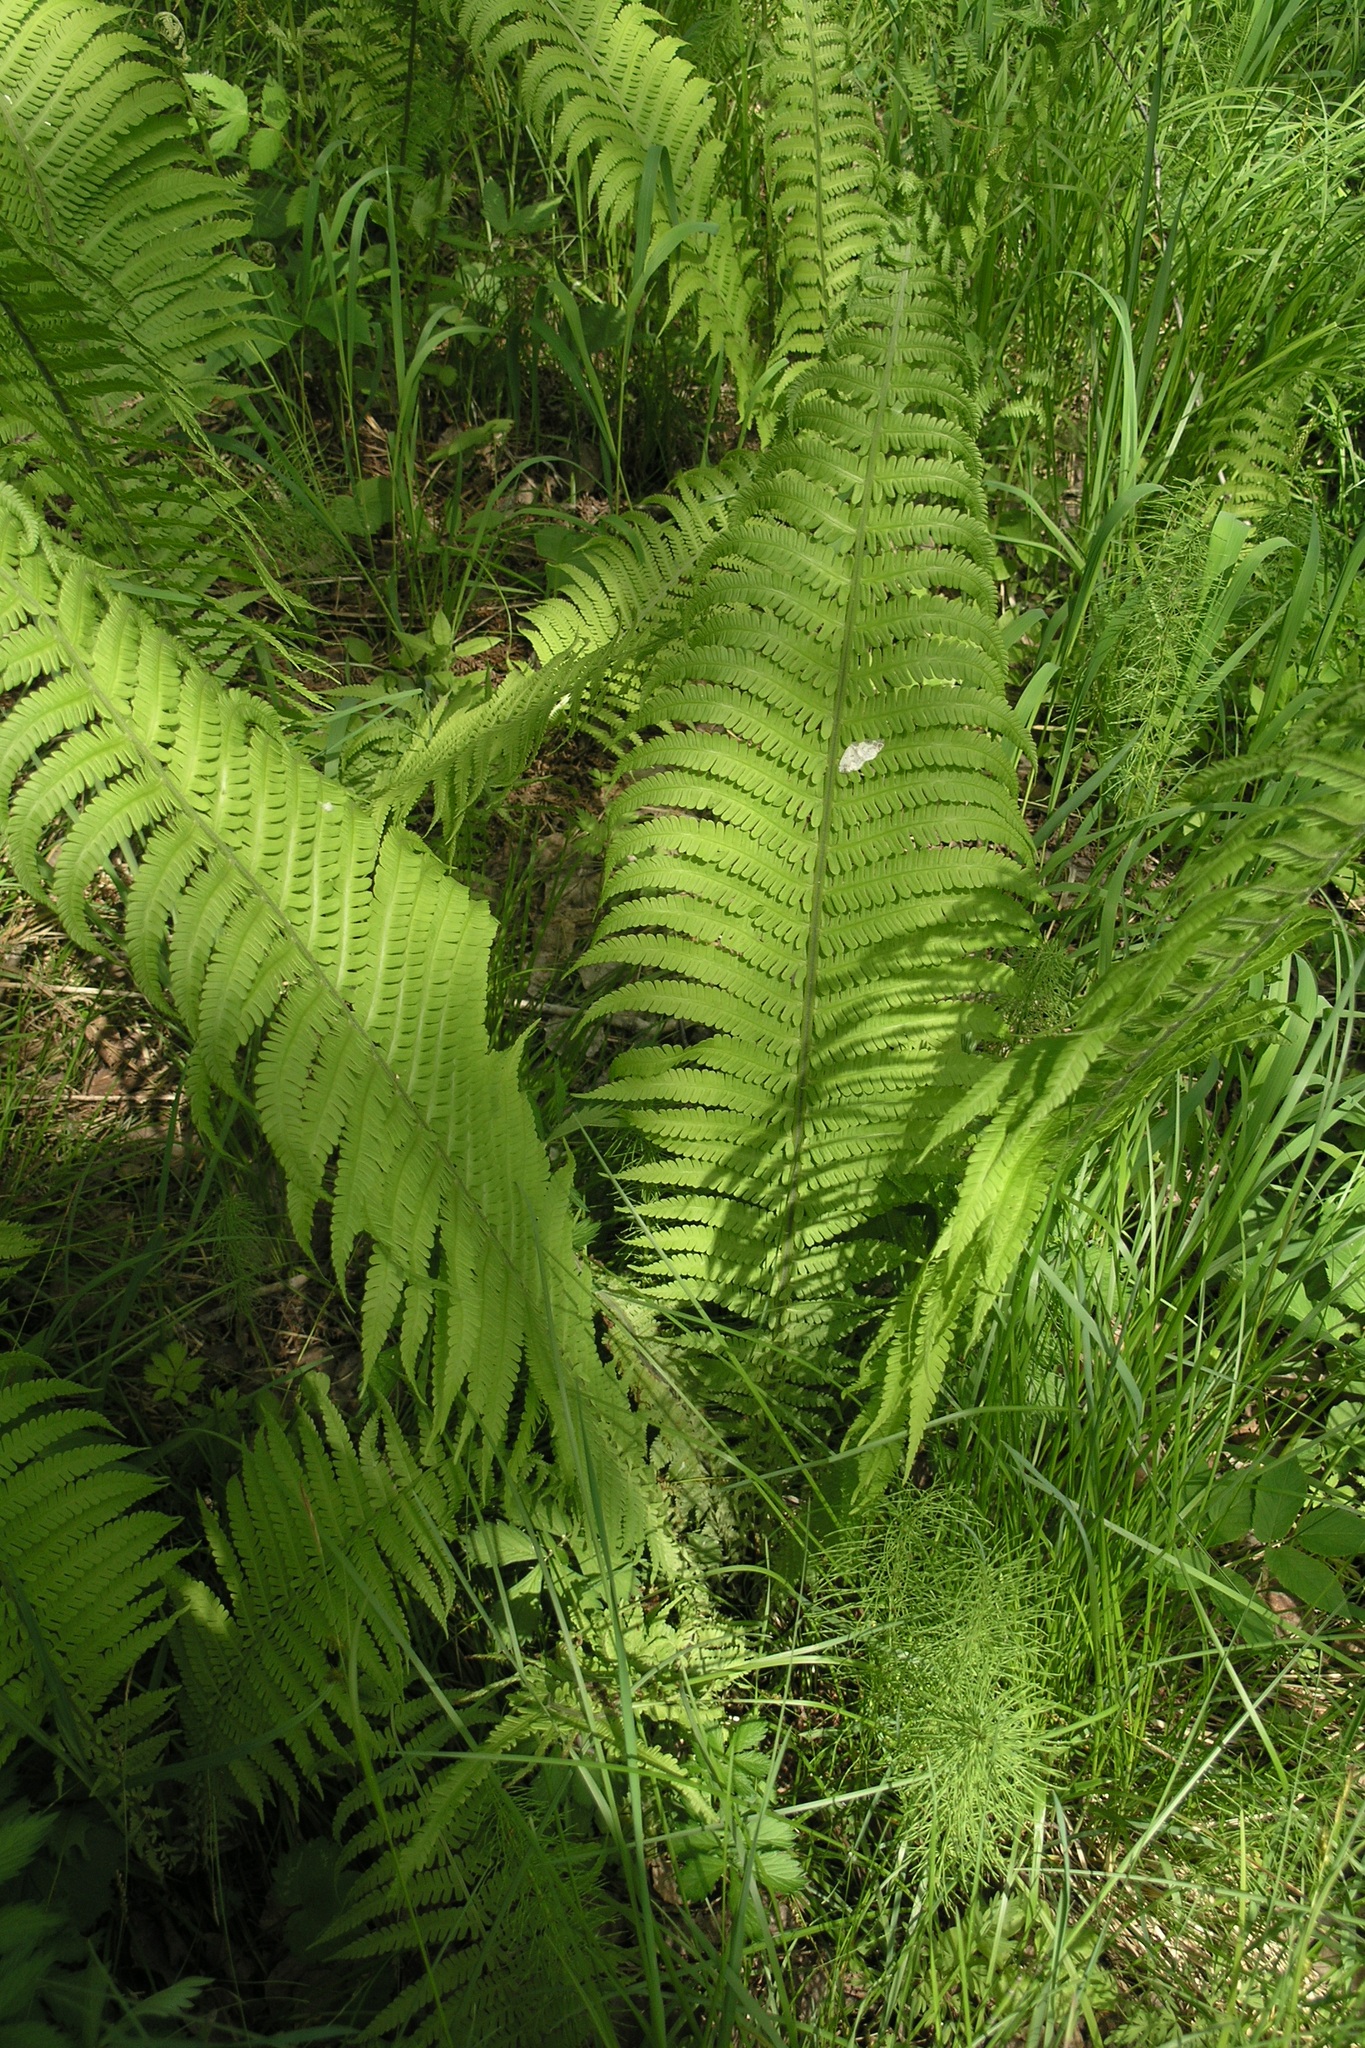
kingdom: Plantae
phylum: Tracheophyta
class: Polypodiopsida
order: Polypodiales
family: Onocleaceae
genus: Matteuccia
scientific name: Matteuccia struthiopteris
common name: Ostrich fern
